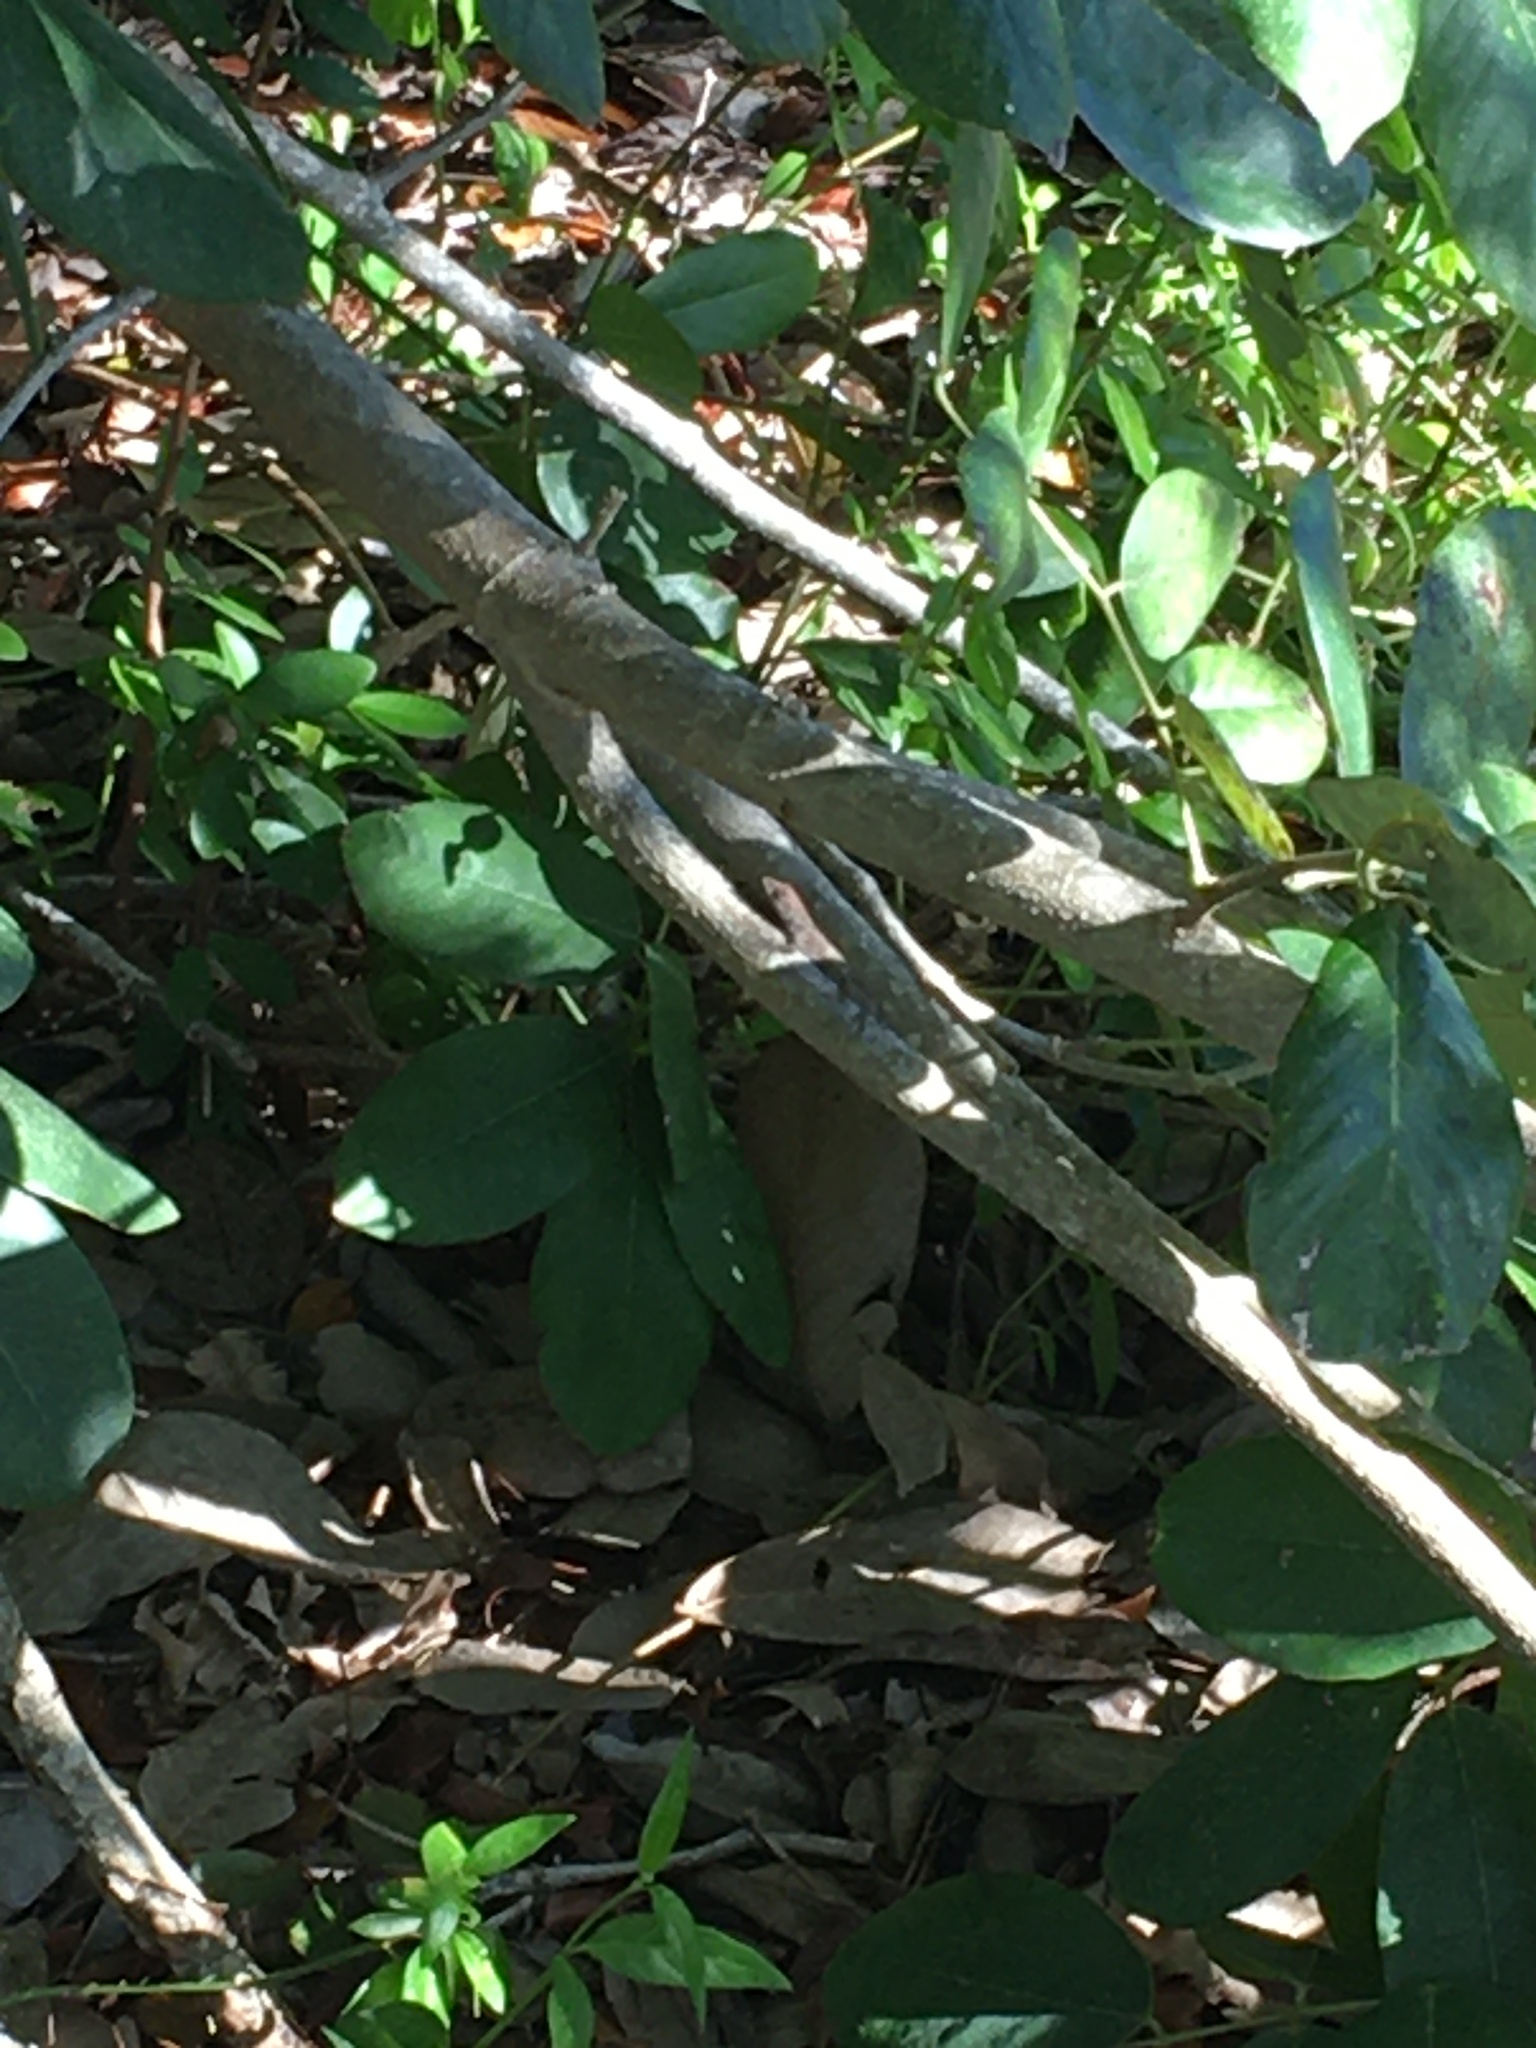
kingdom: Animalia
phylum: Chordata
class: Squamata
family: Dactyloidae
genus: Anolis
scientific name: Anolis sagrei
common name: Brown anole
